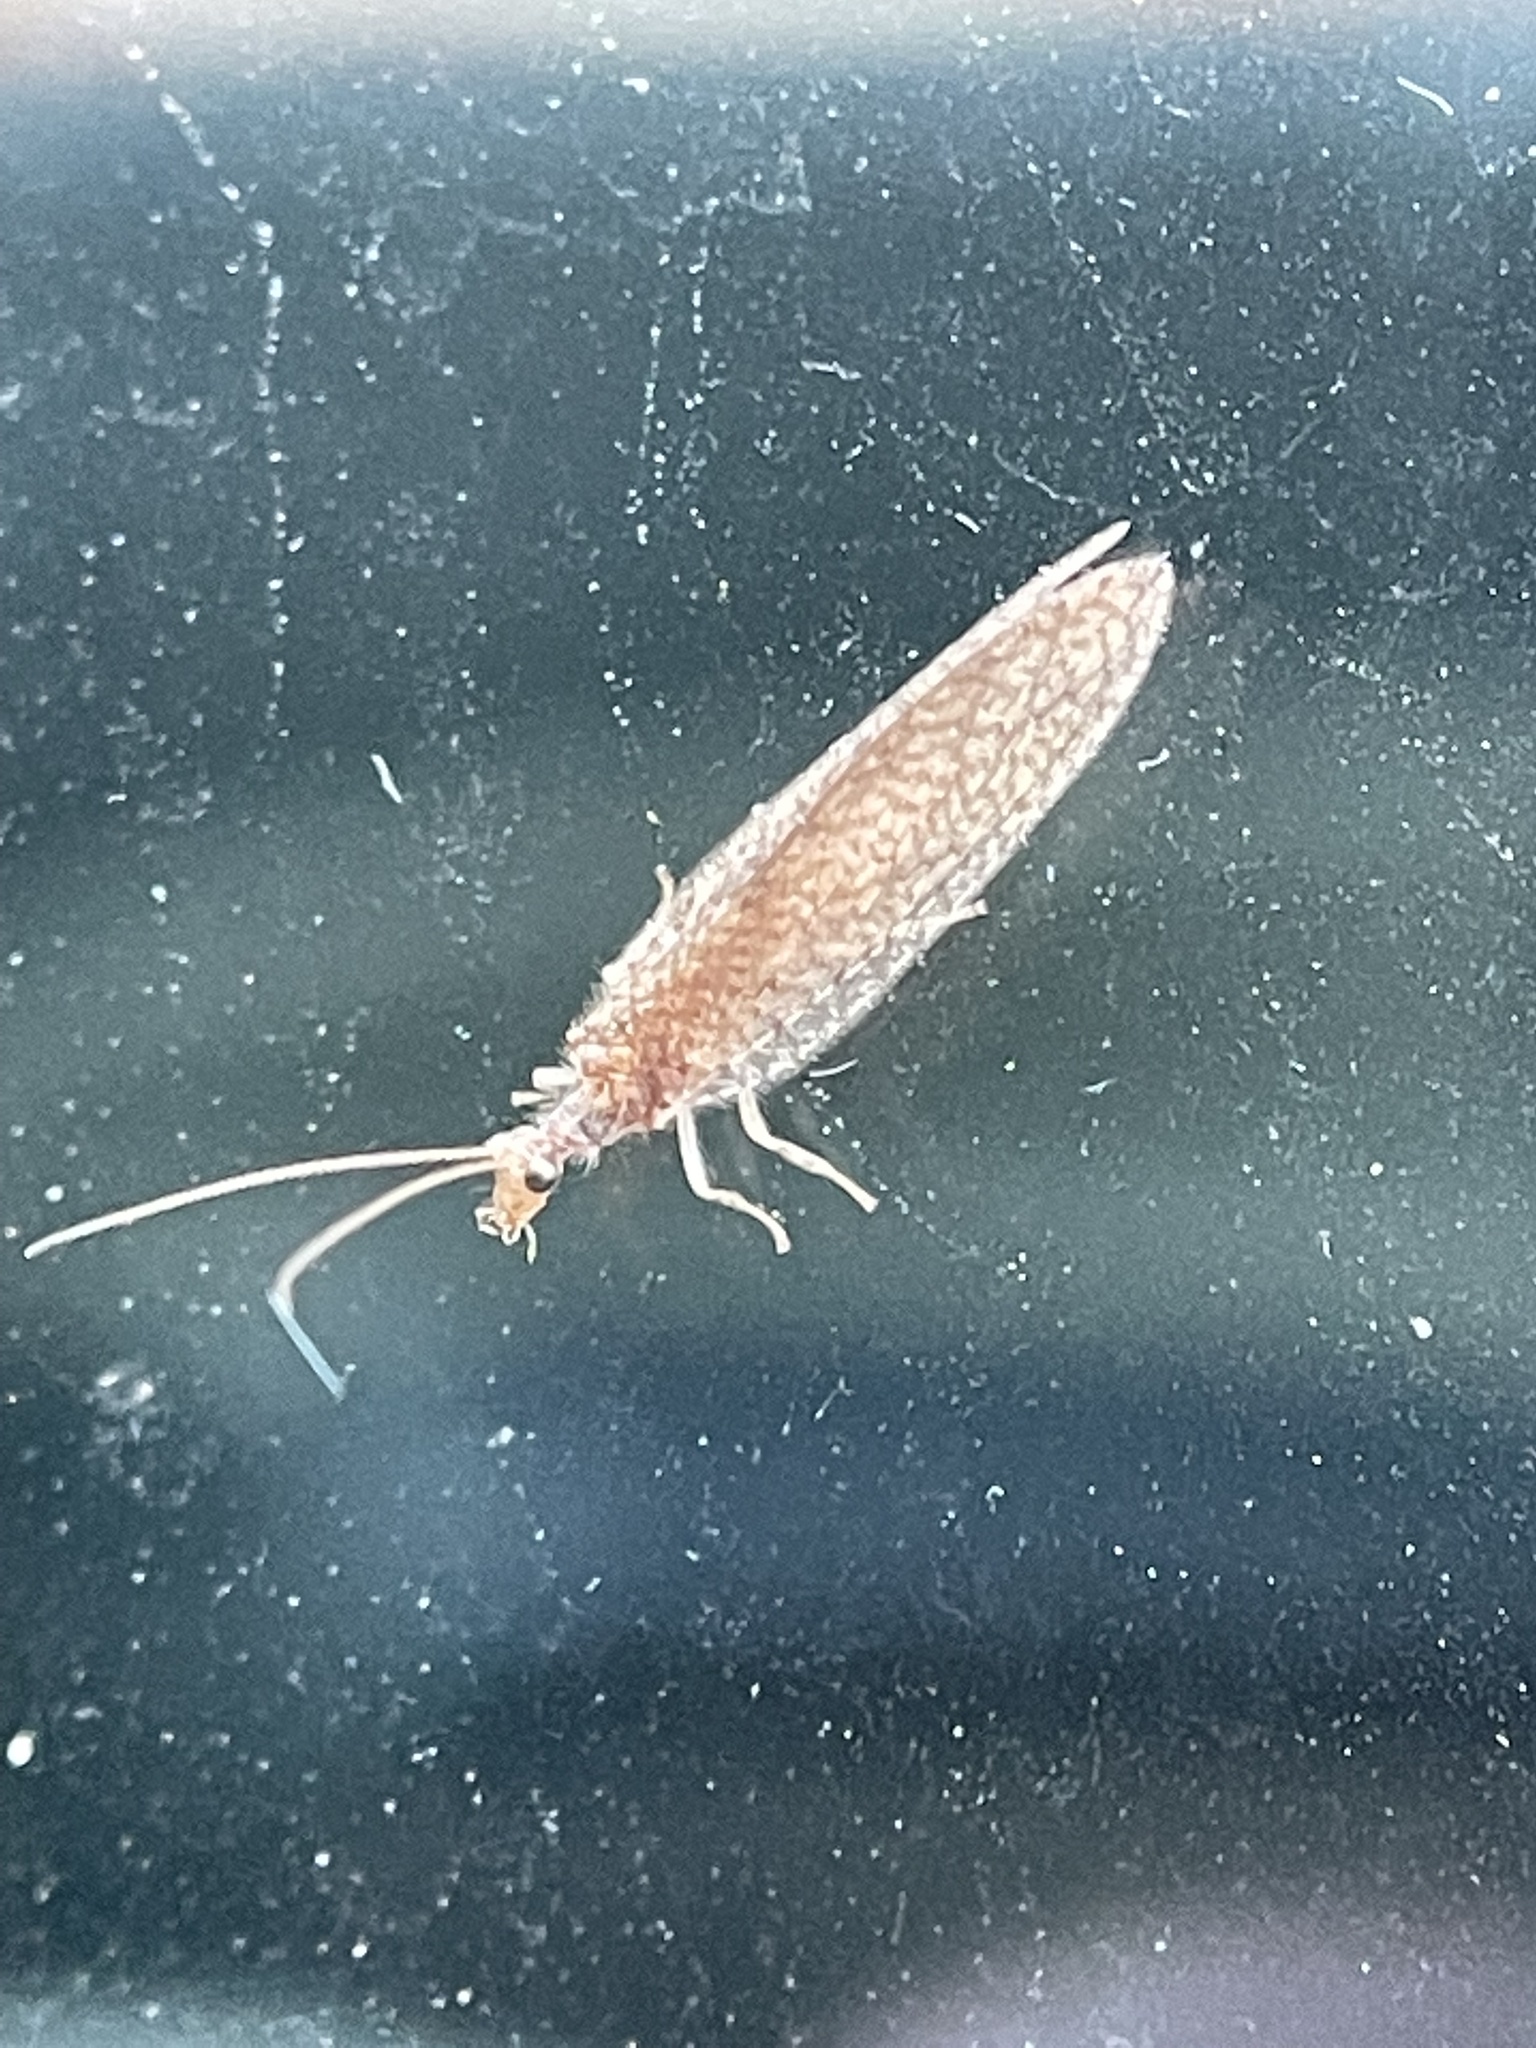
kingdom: Animalia
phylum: Arthropoda
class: Insecta
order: Neuroptera
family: Hemerobiidae
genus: Micromus
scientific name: Micromus posticus
